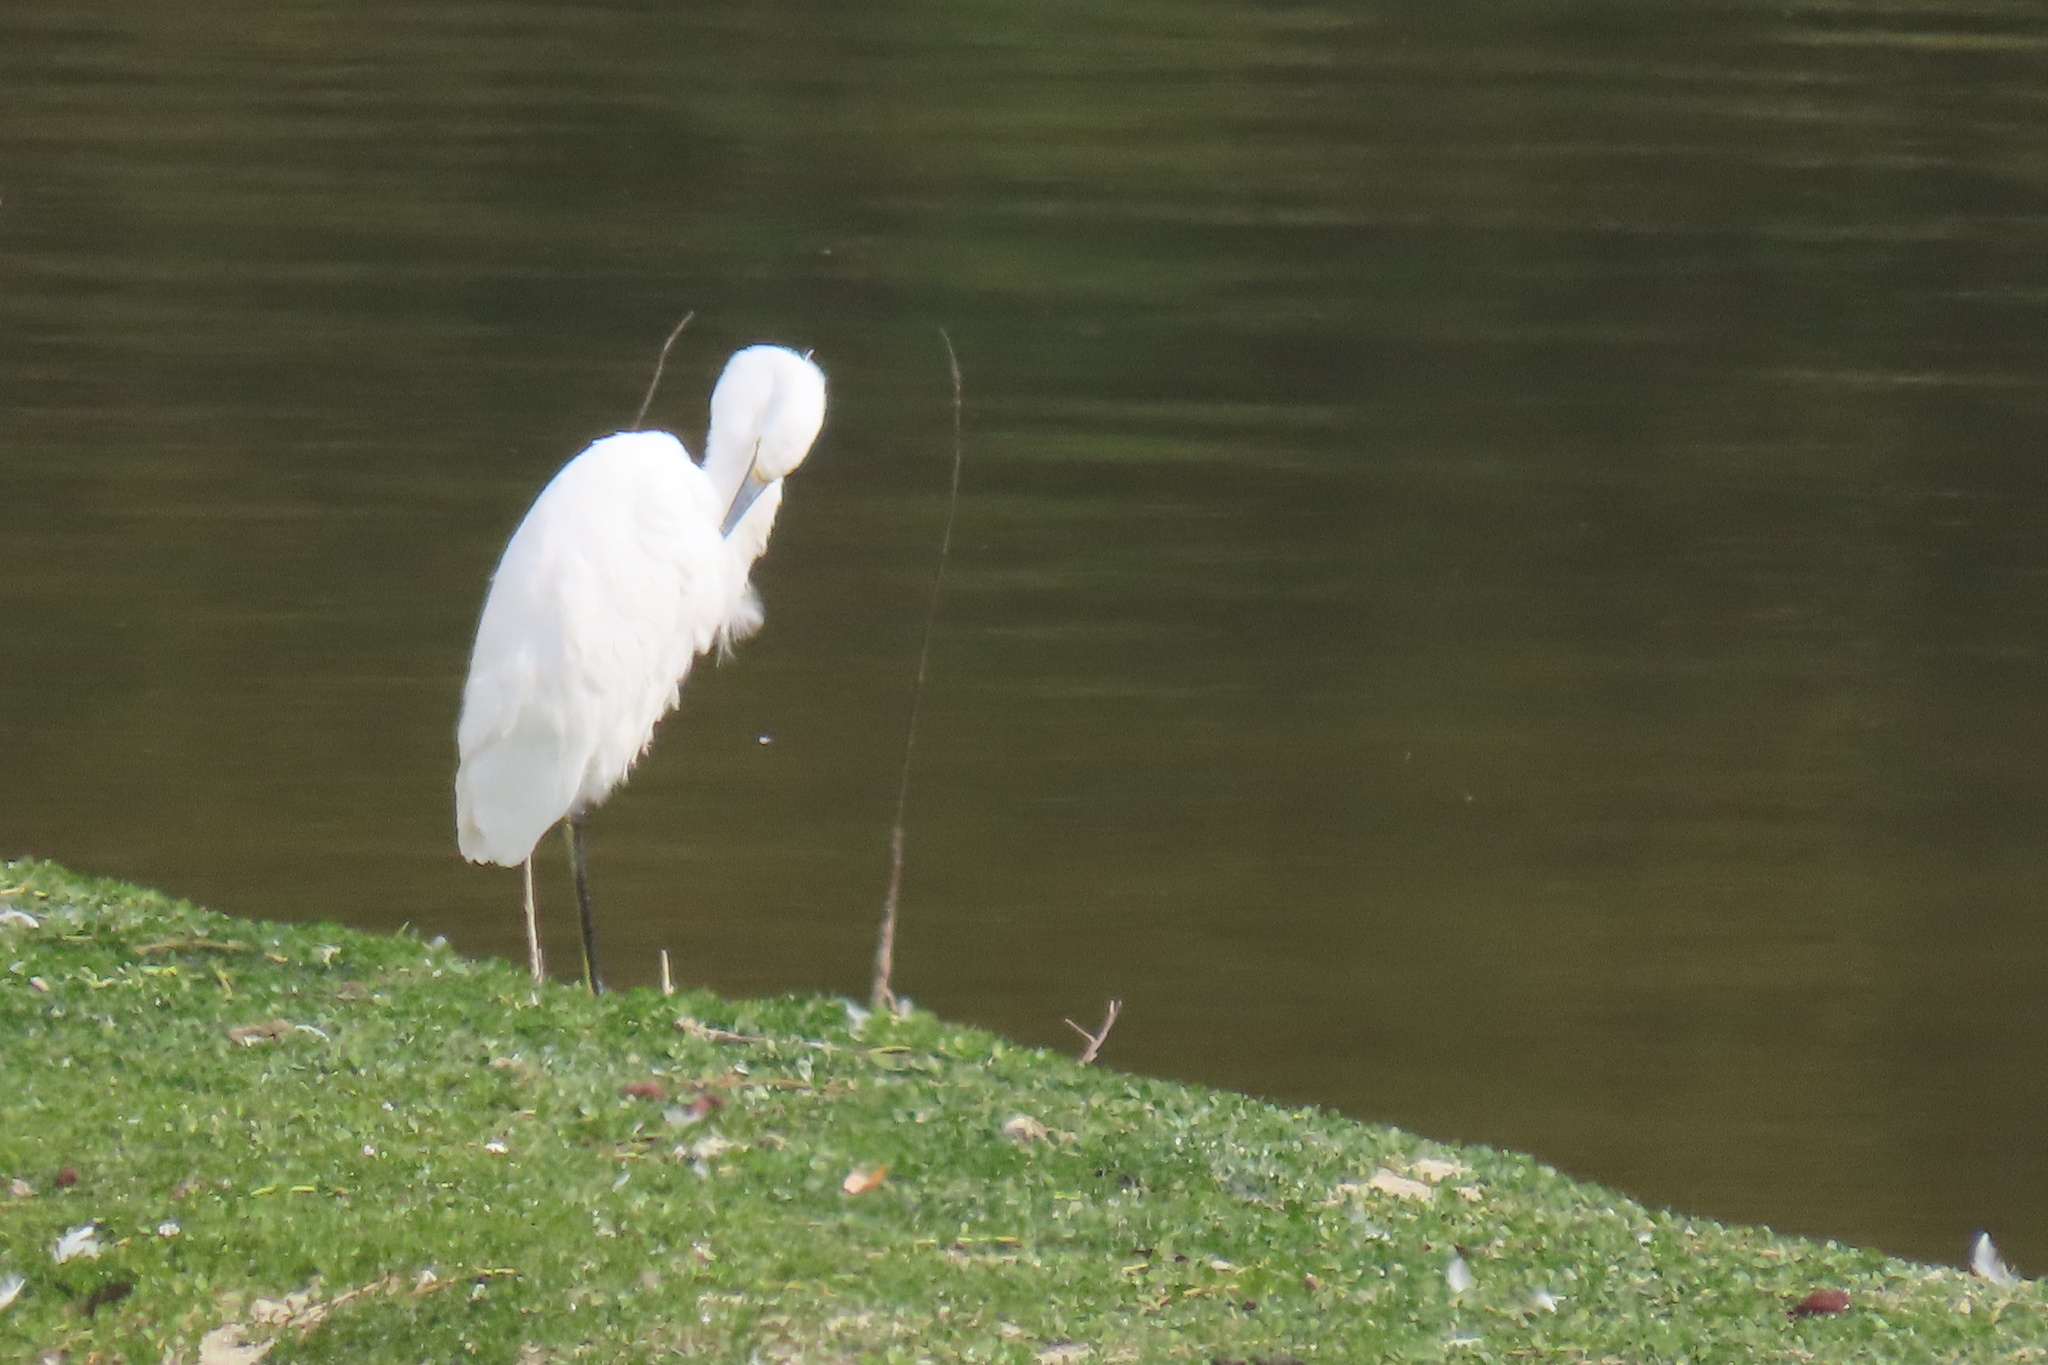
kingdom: Animalia
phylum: Chordata
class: Aves
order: Pelecaniformes
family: Ardeidae
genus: Egretta
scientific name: Egretta thula
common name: Snowy egret
